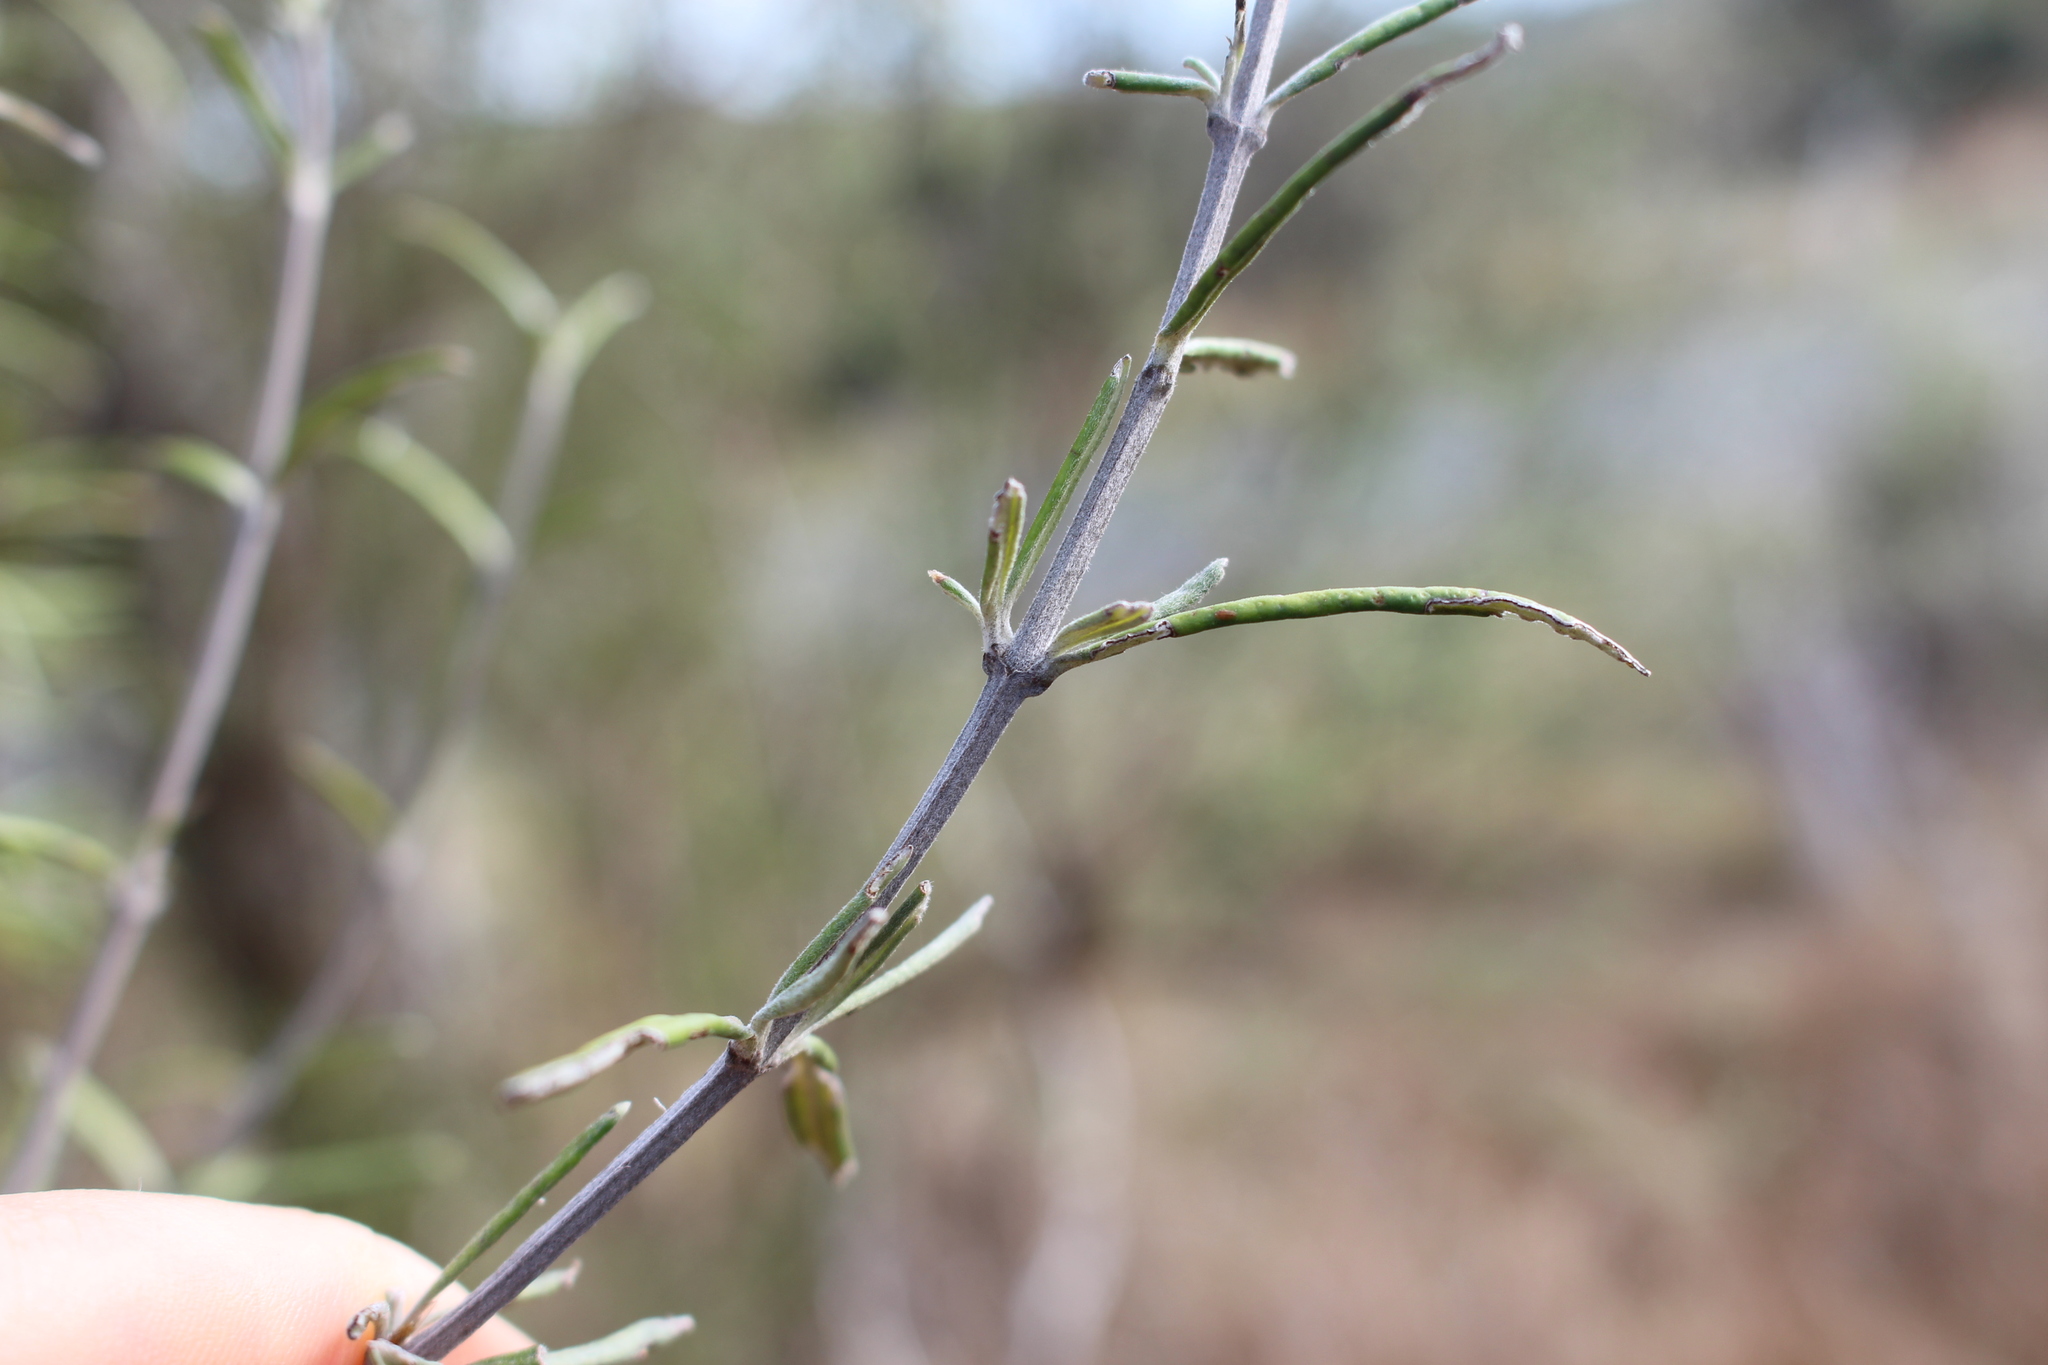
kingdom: Plantae
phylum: Tracheophyta
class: Magnoliopsida
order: Asterales
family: Asteraceae
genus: Olearia
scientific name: Olearia lineata
